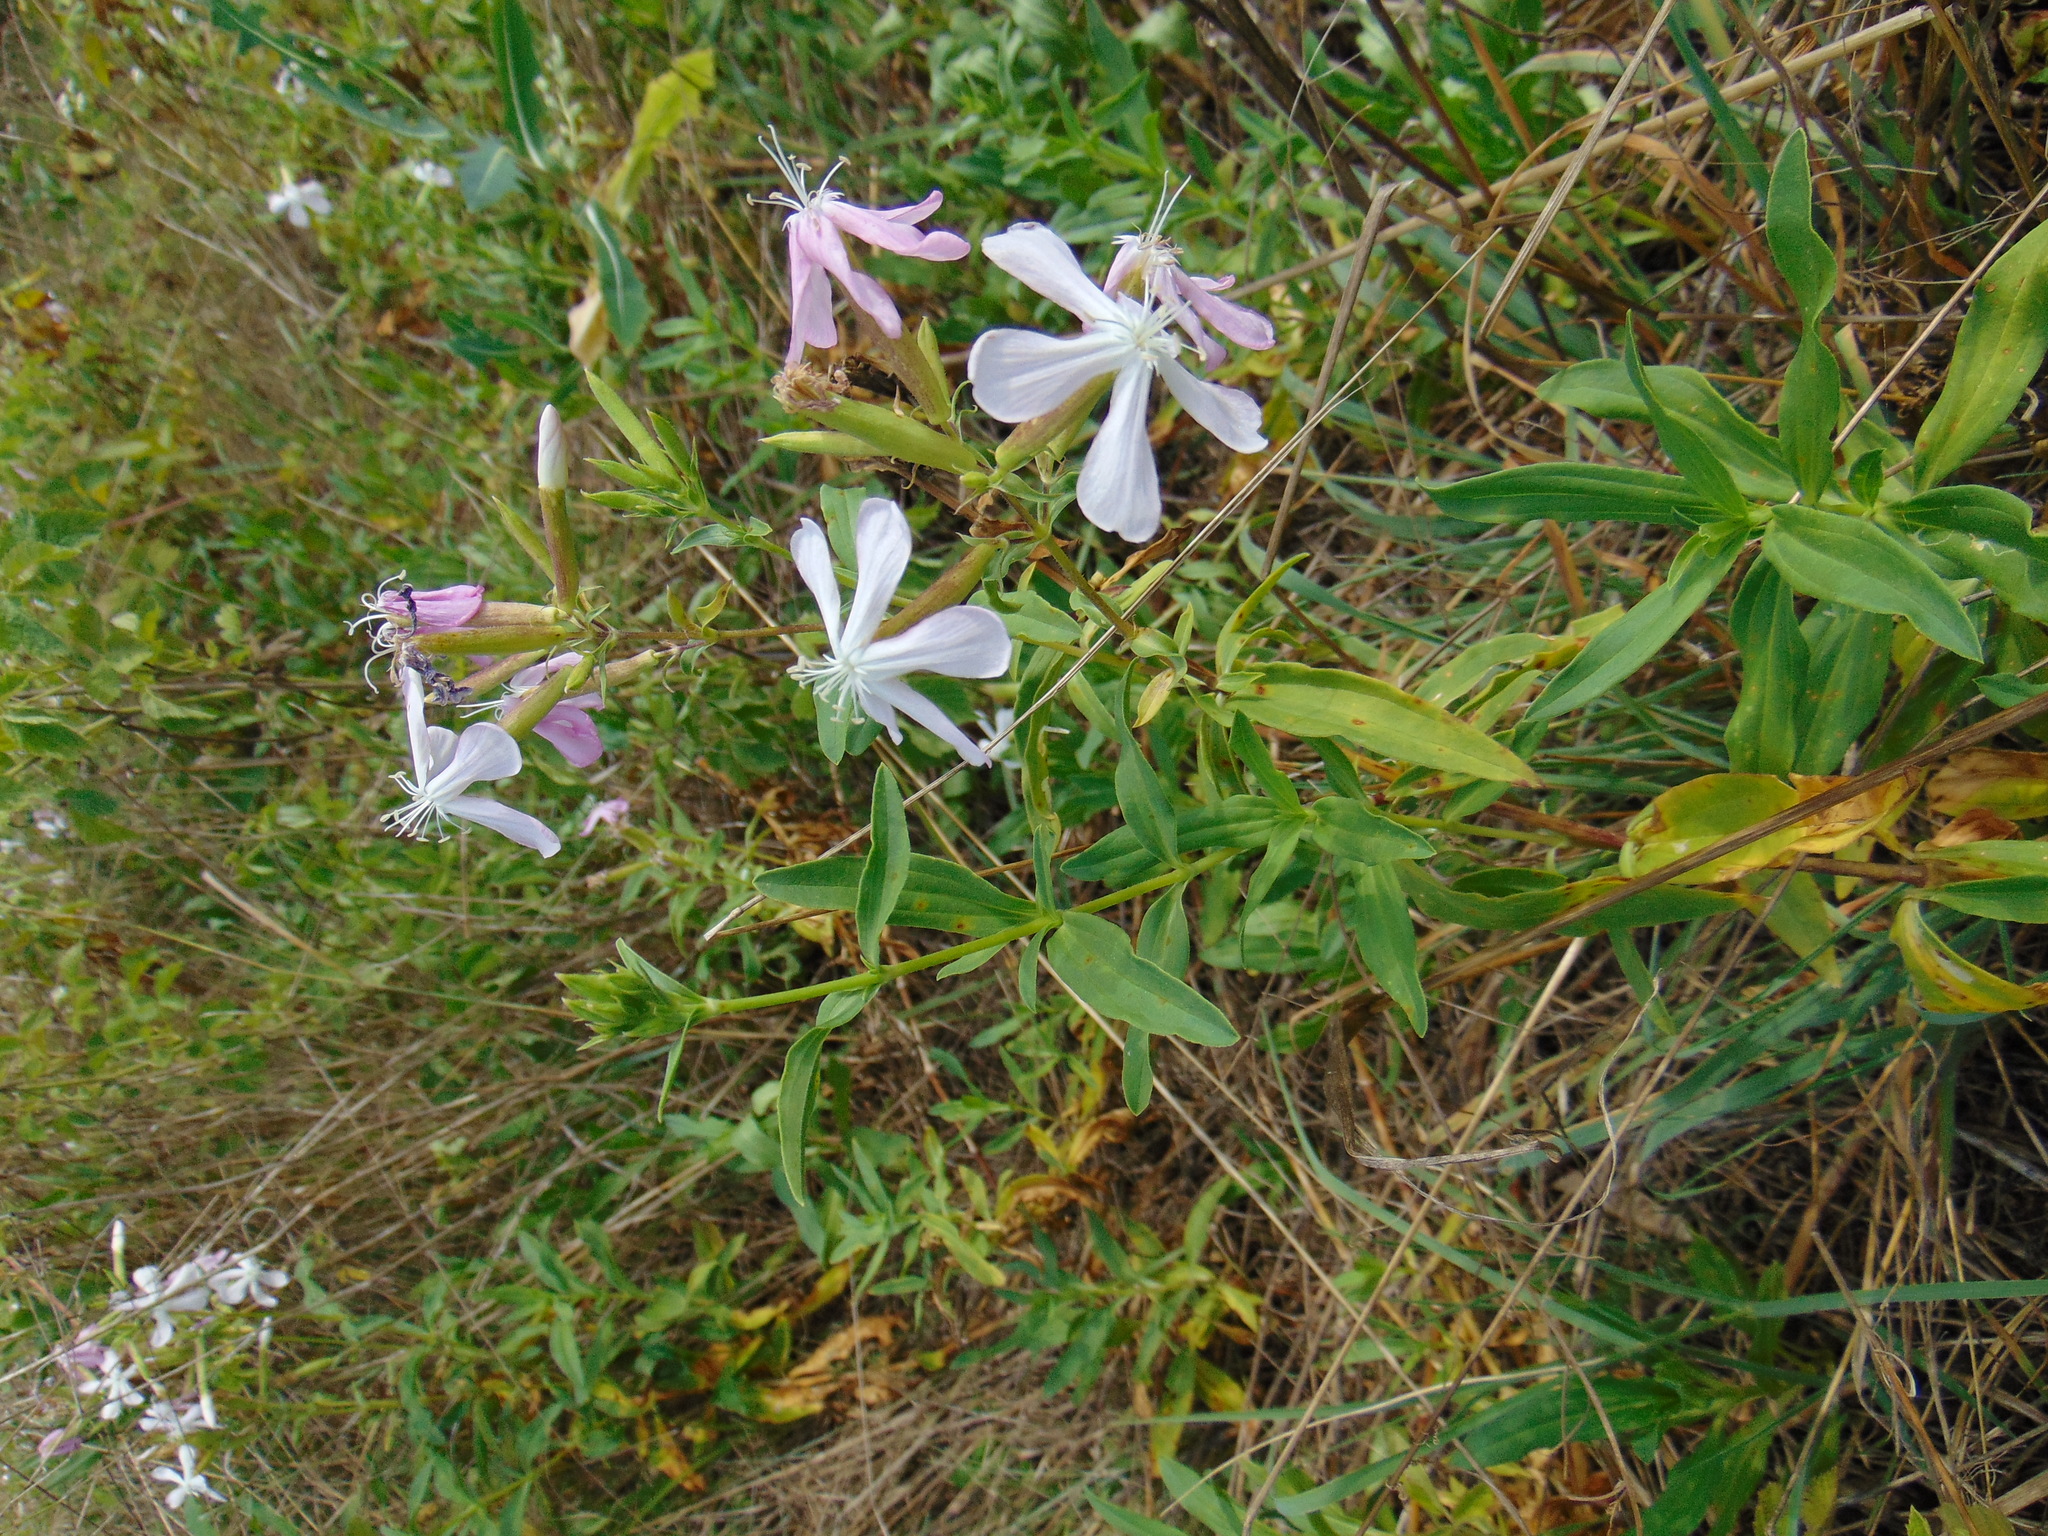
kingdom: Plantae
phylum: Tracheophyta
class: Magnoliopsida
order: Caryophyllales
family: Caryophyllaceae
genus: Saponaria
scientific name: Saponaria officinalis
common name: Soapwort
